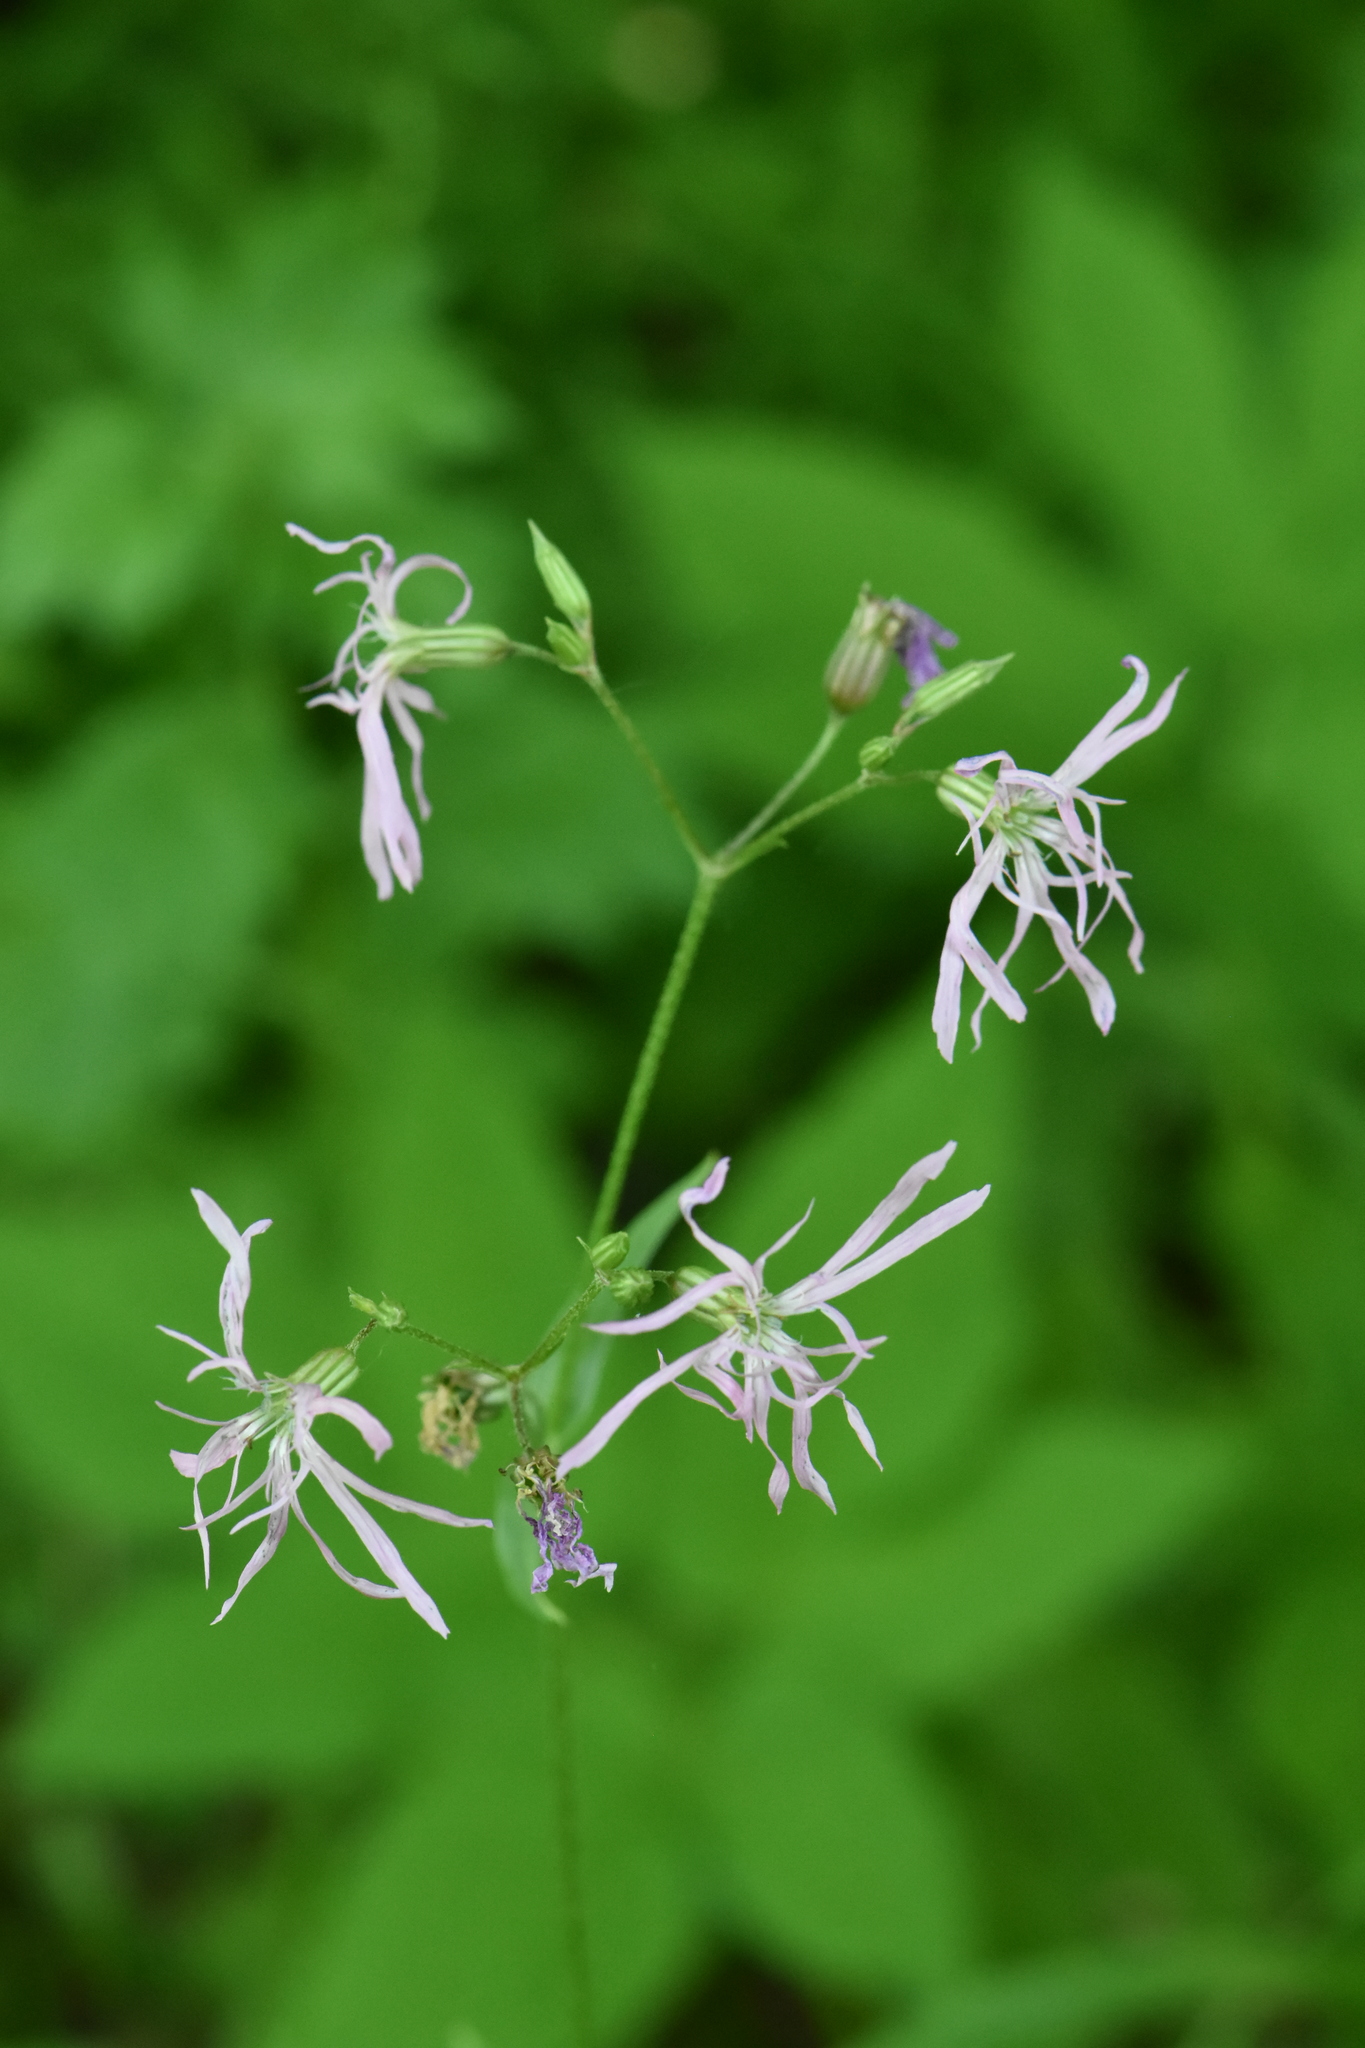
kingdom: Plantae
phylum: Tracheophyta
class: Magnoliopsida
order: Caryophyllales
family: Caryophyllaceae
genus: Silene
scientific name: Silene flos-cuculi
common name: Ragged-robin
